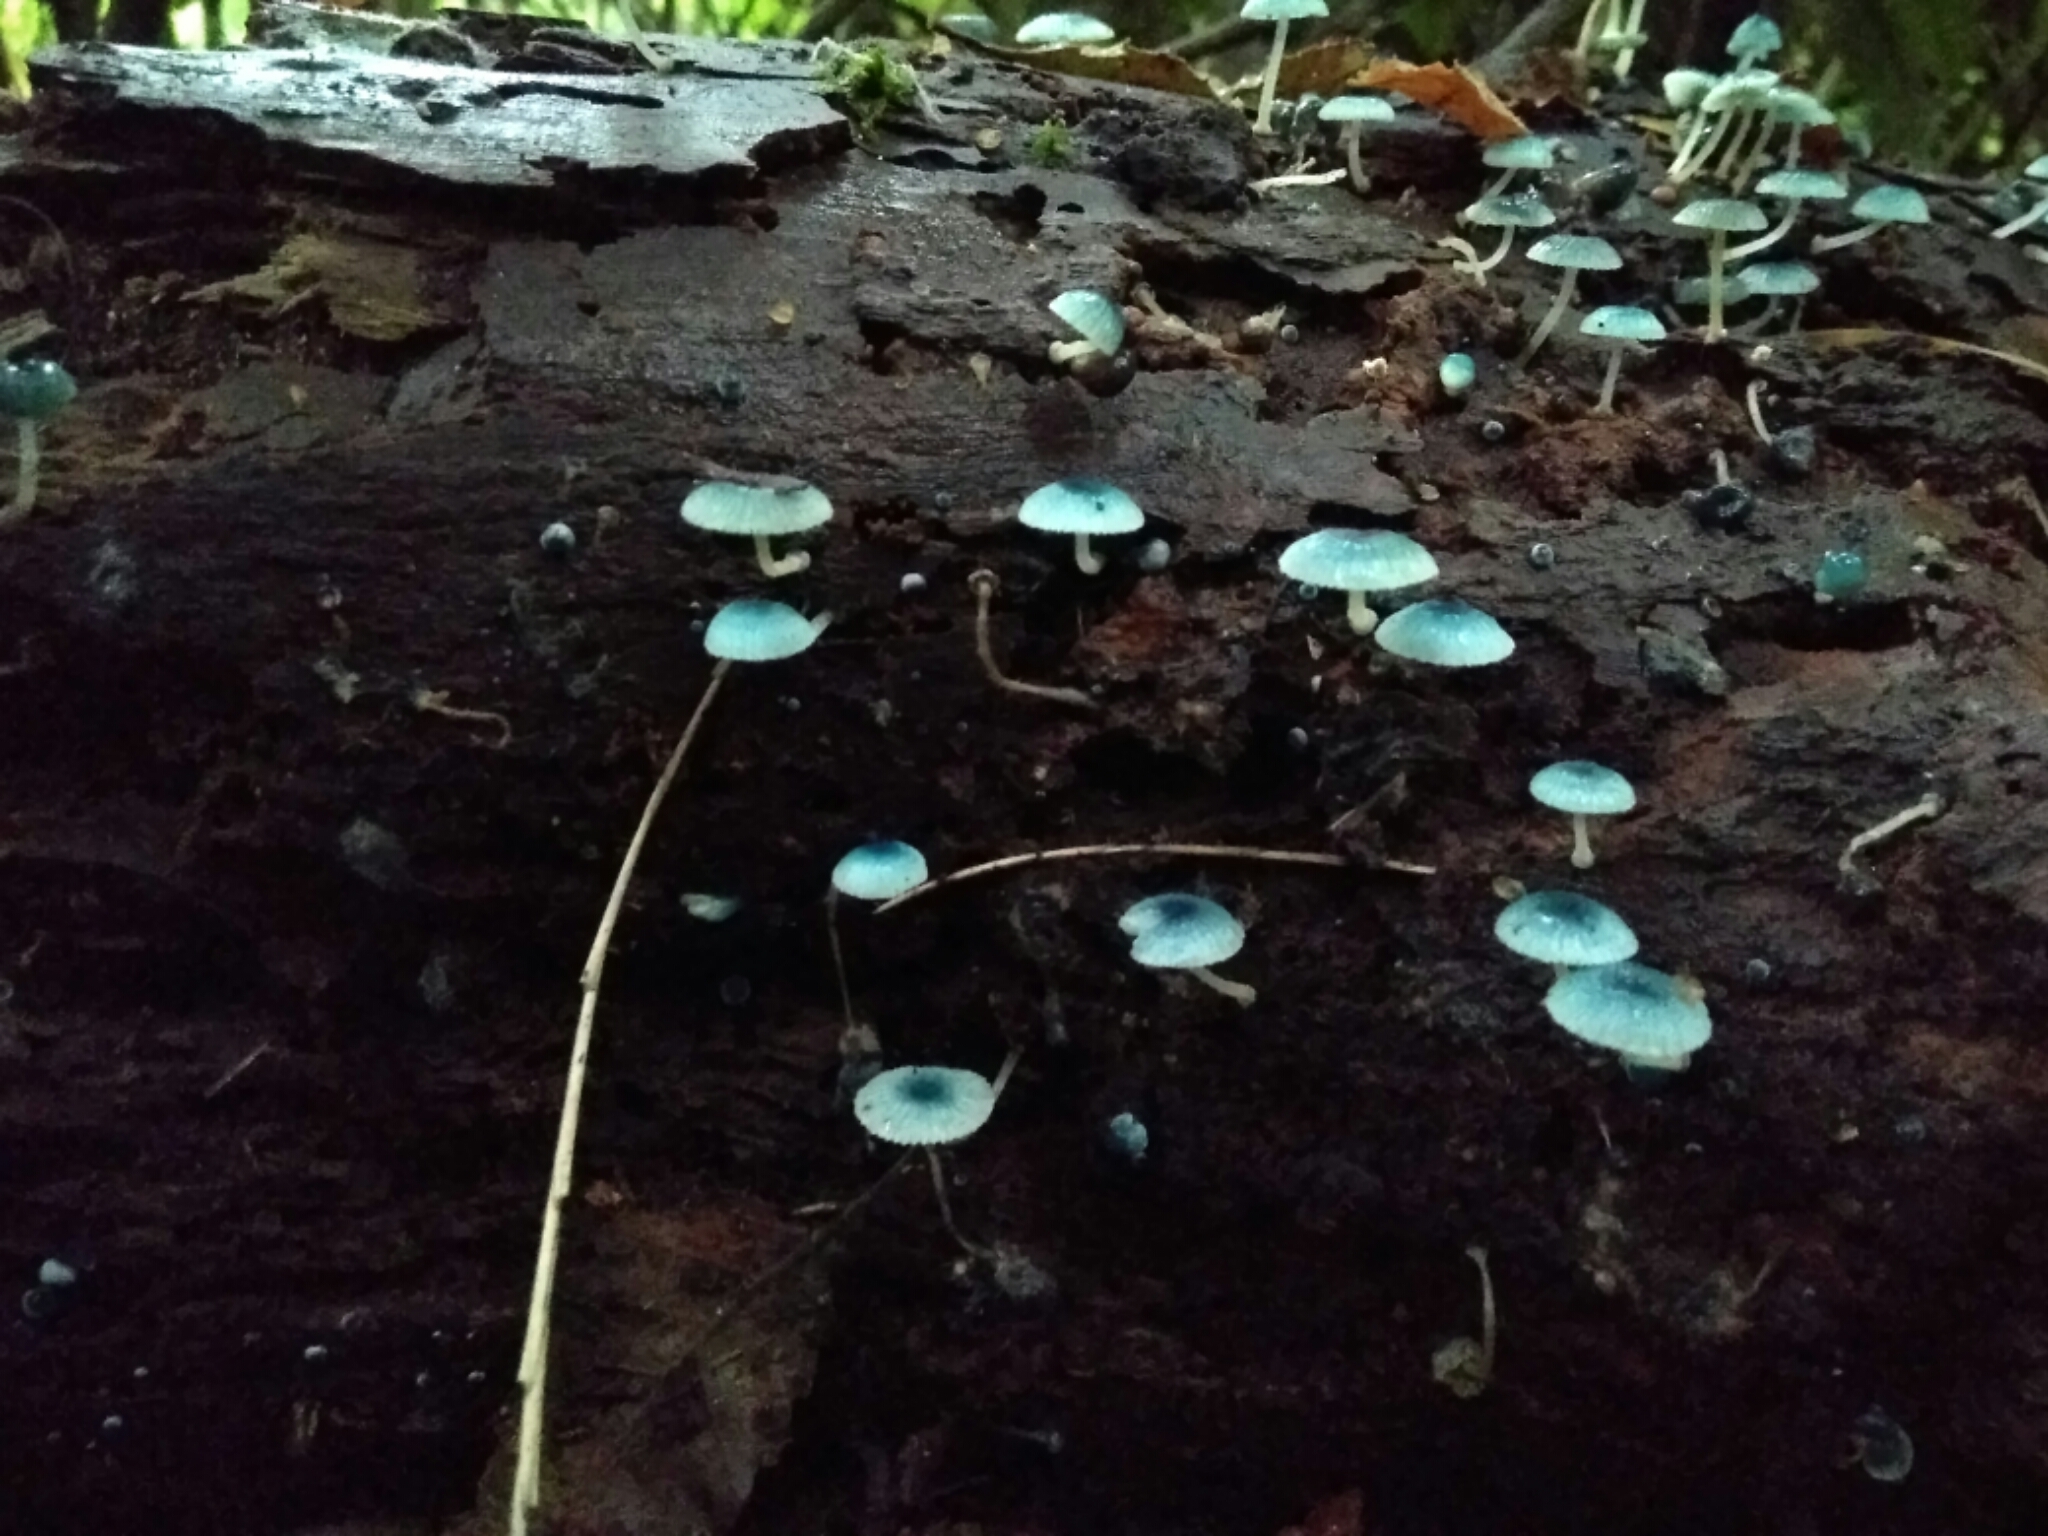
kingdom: Fungi
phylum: Basidiomycota
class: Agaricomycetes
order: Agaricales
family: Mycenaceae
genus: Mycena
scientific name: Mycena cyanocephala
